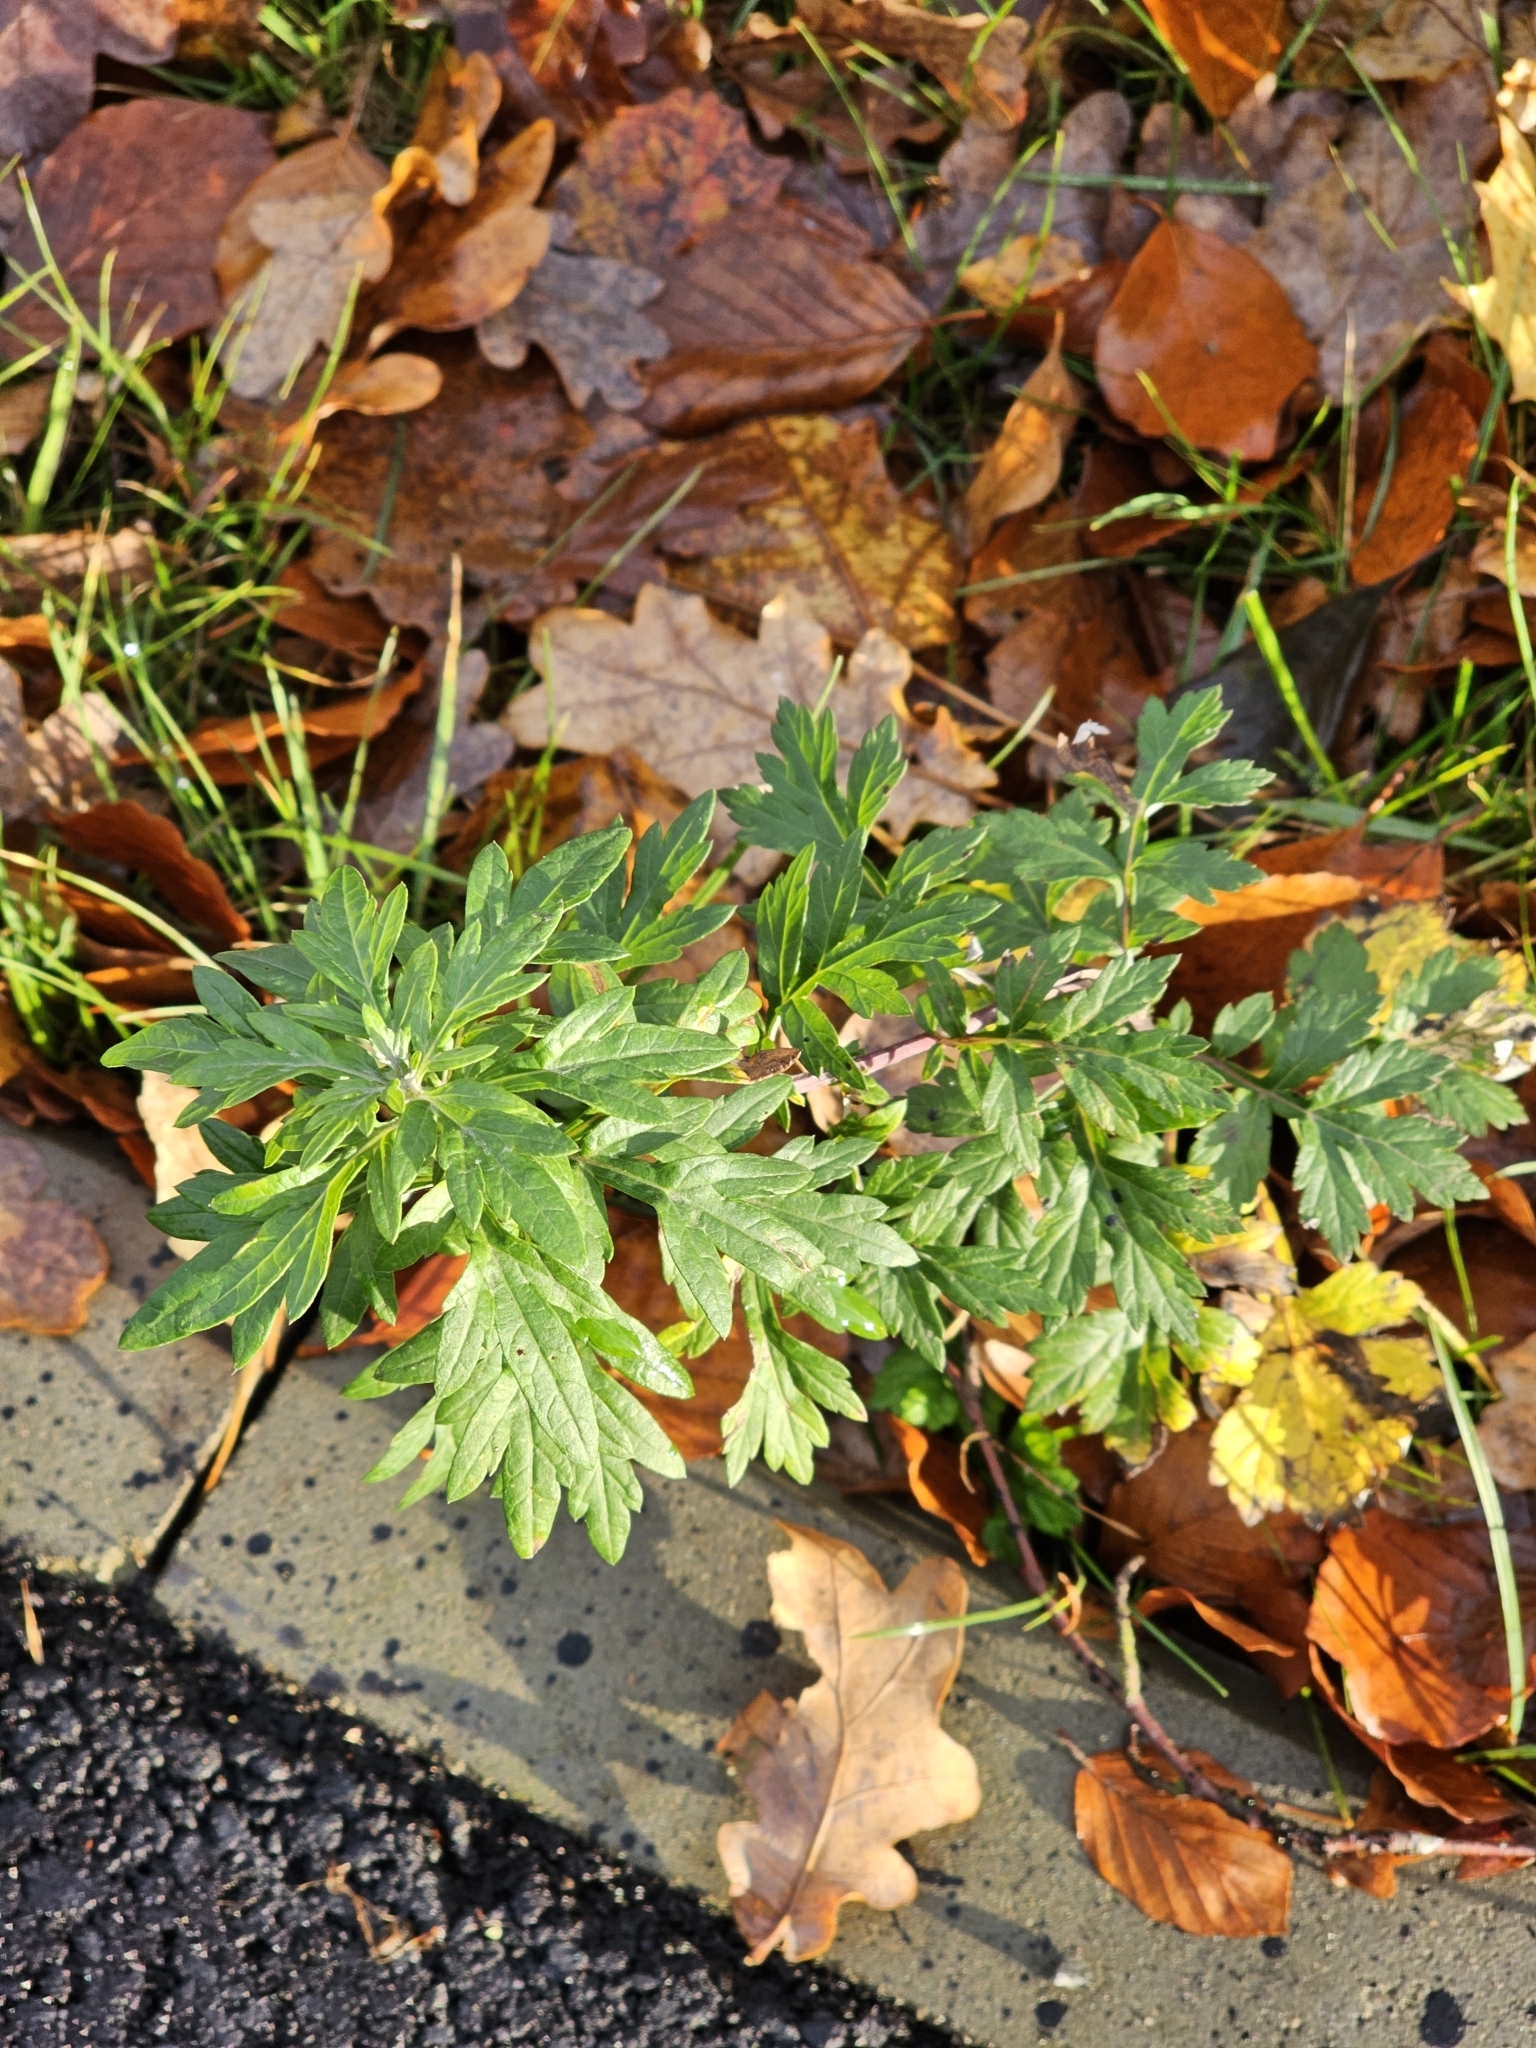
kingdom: Plantae
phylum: Tracheophyta
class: Magnoliopsida
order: Asterales
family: Asteraceae
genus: Artemisia
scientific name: Artemisia vulgaris
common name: Mugwort
